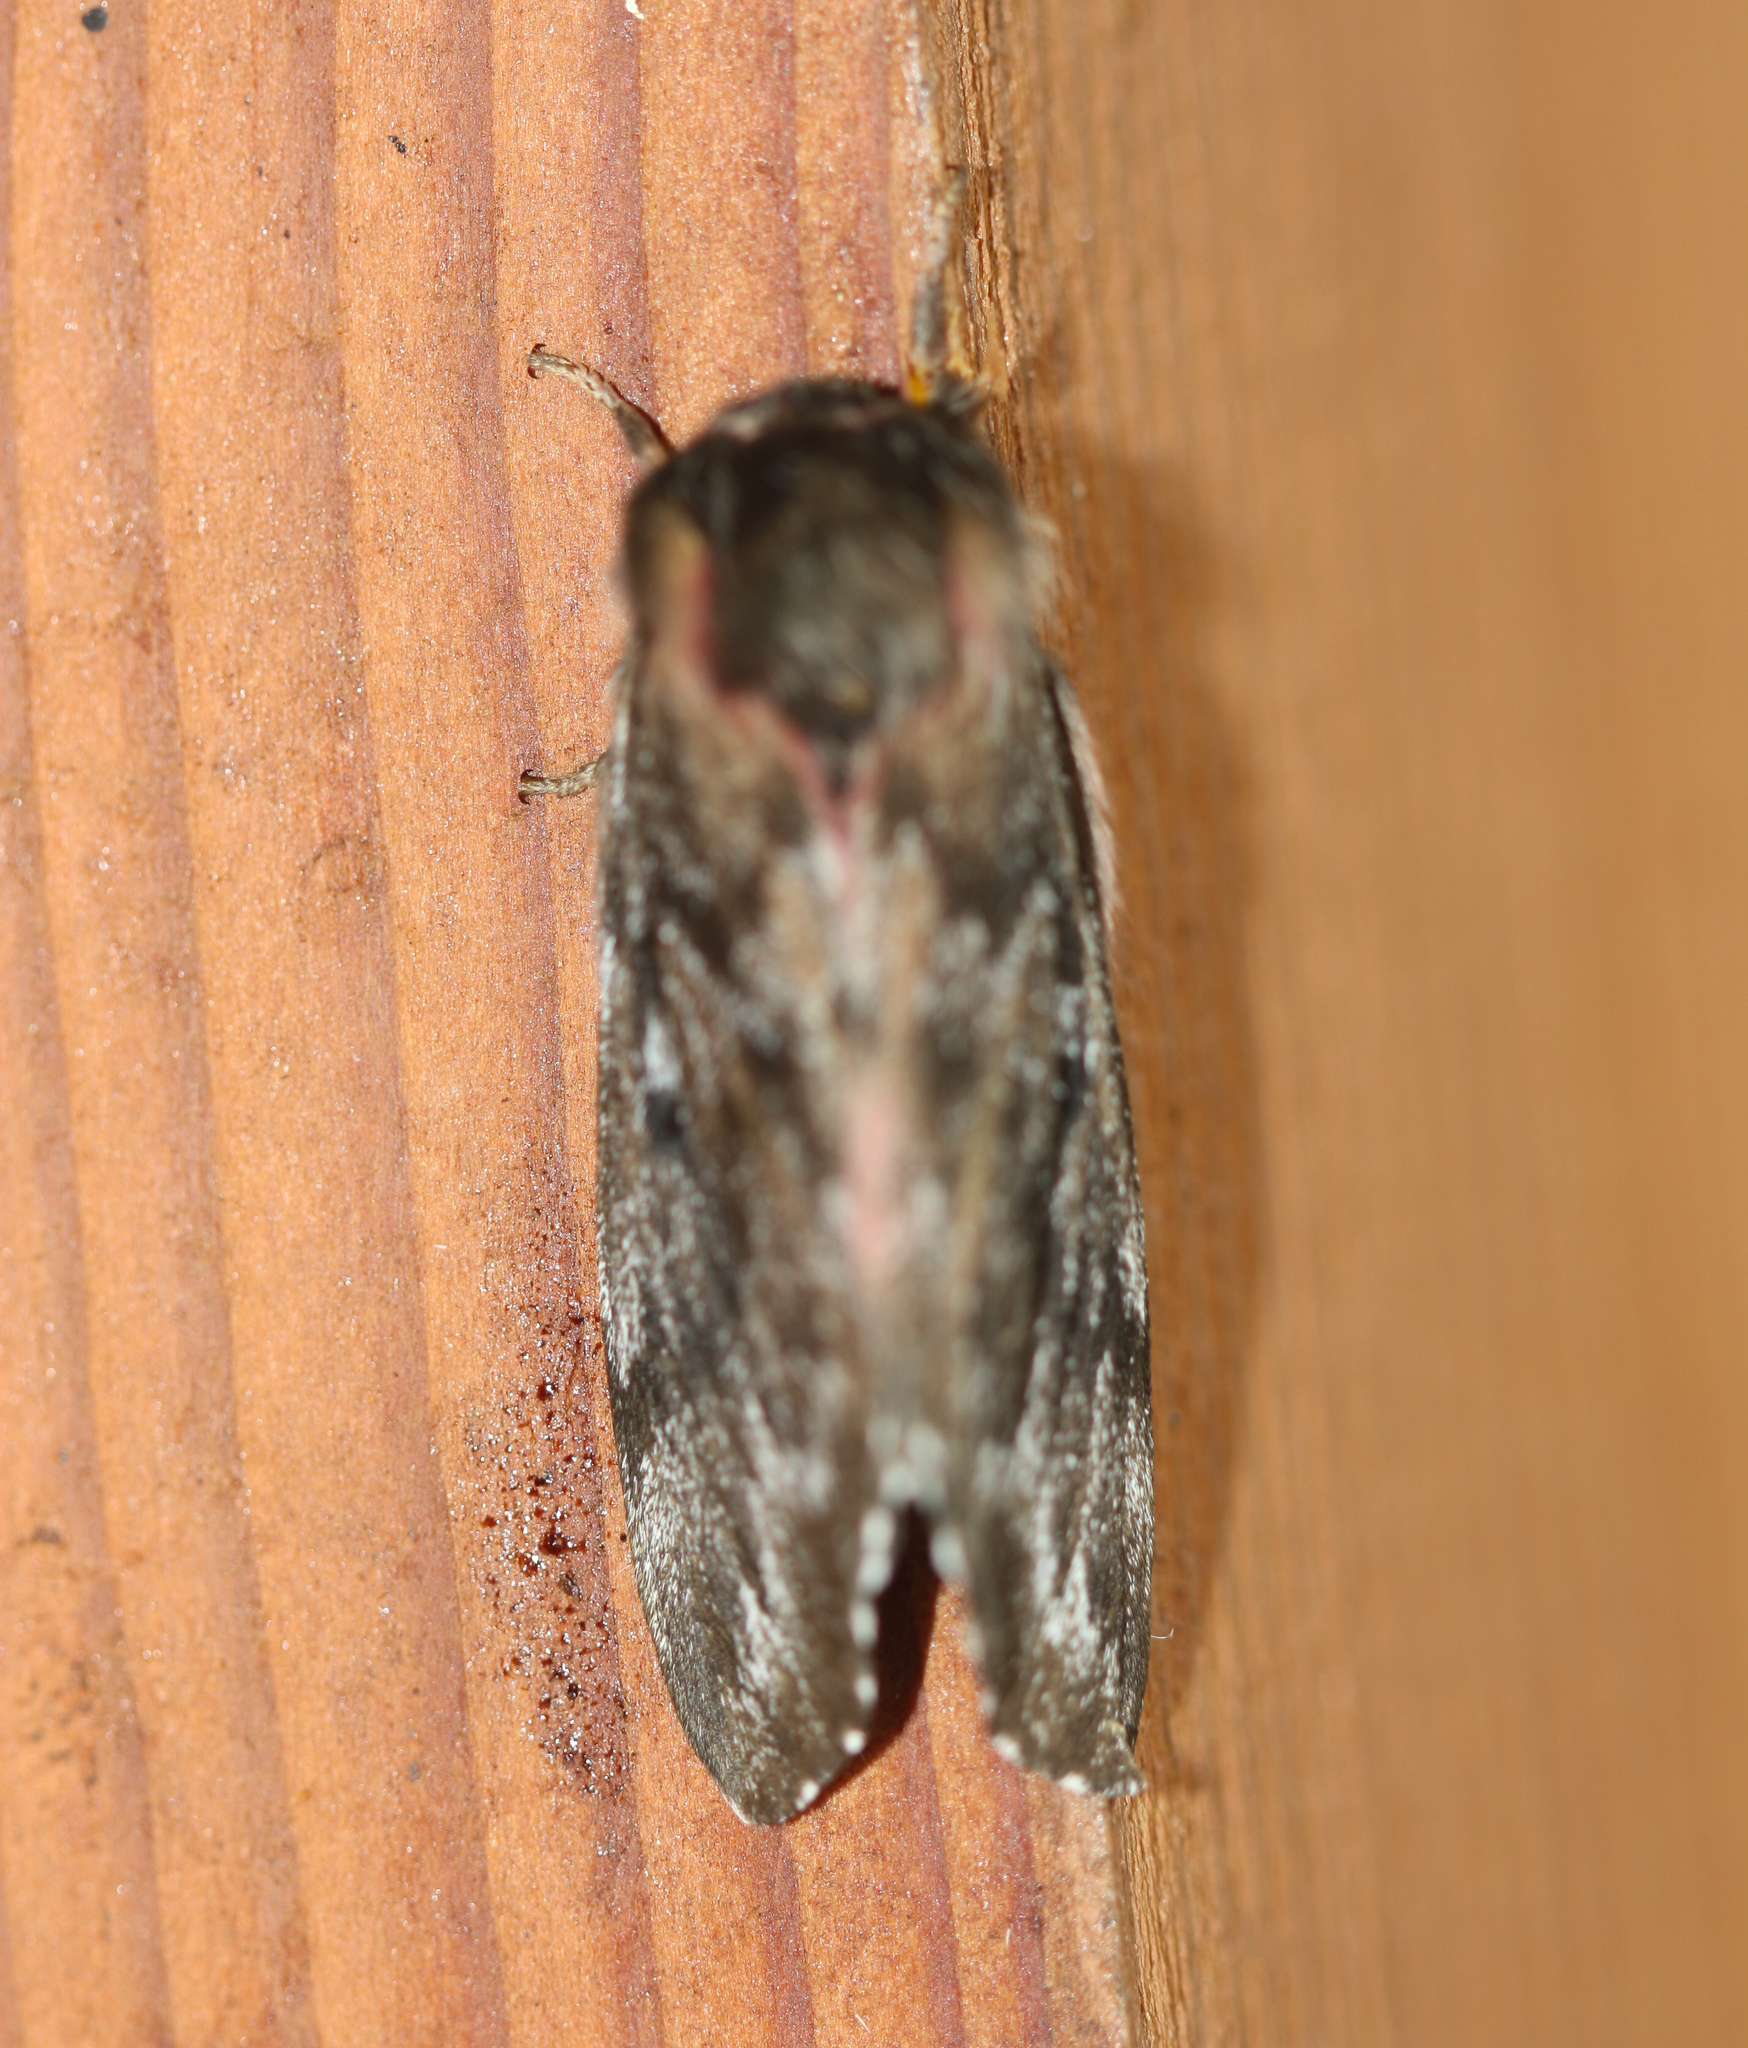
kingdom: Animalia
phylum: Arthropoda
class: Insecta
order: Lepidoptera
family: Saturniidae
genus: Coloradia
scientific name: Coloradia pandora
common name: Pandora pinemoth
